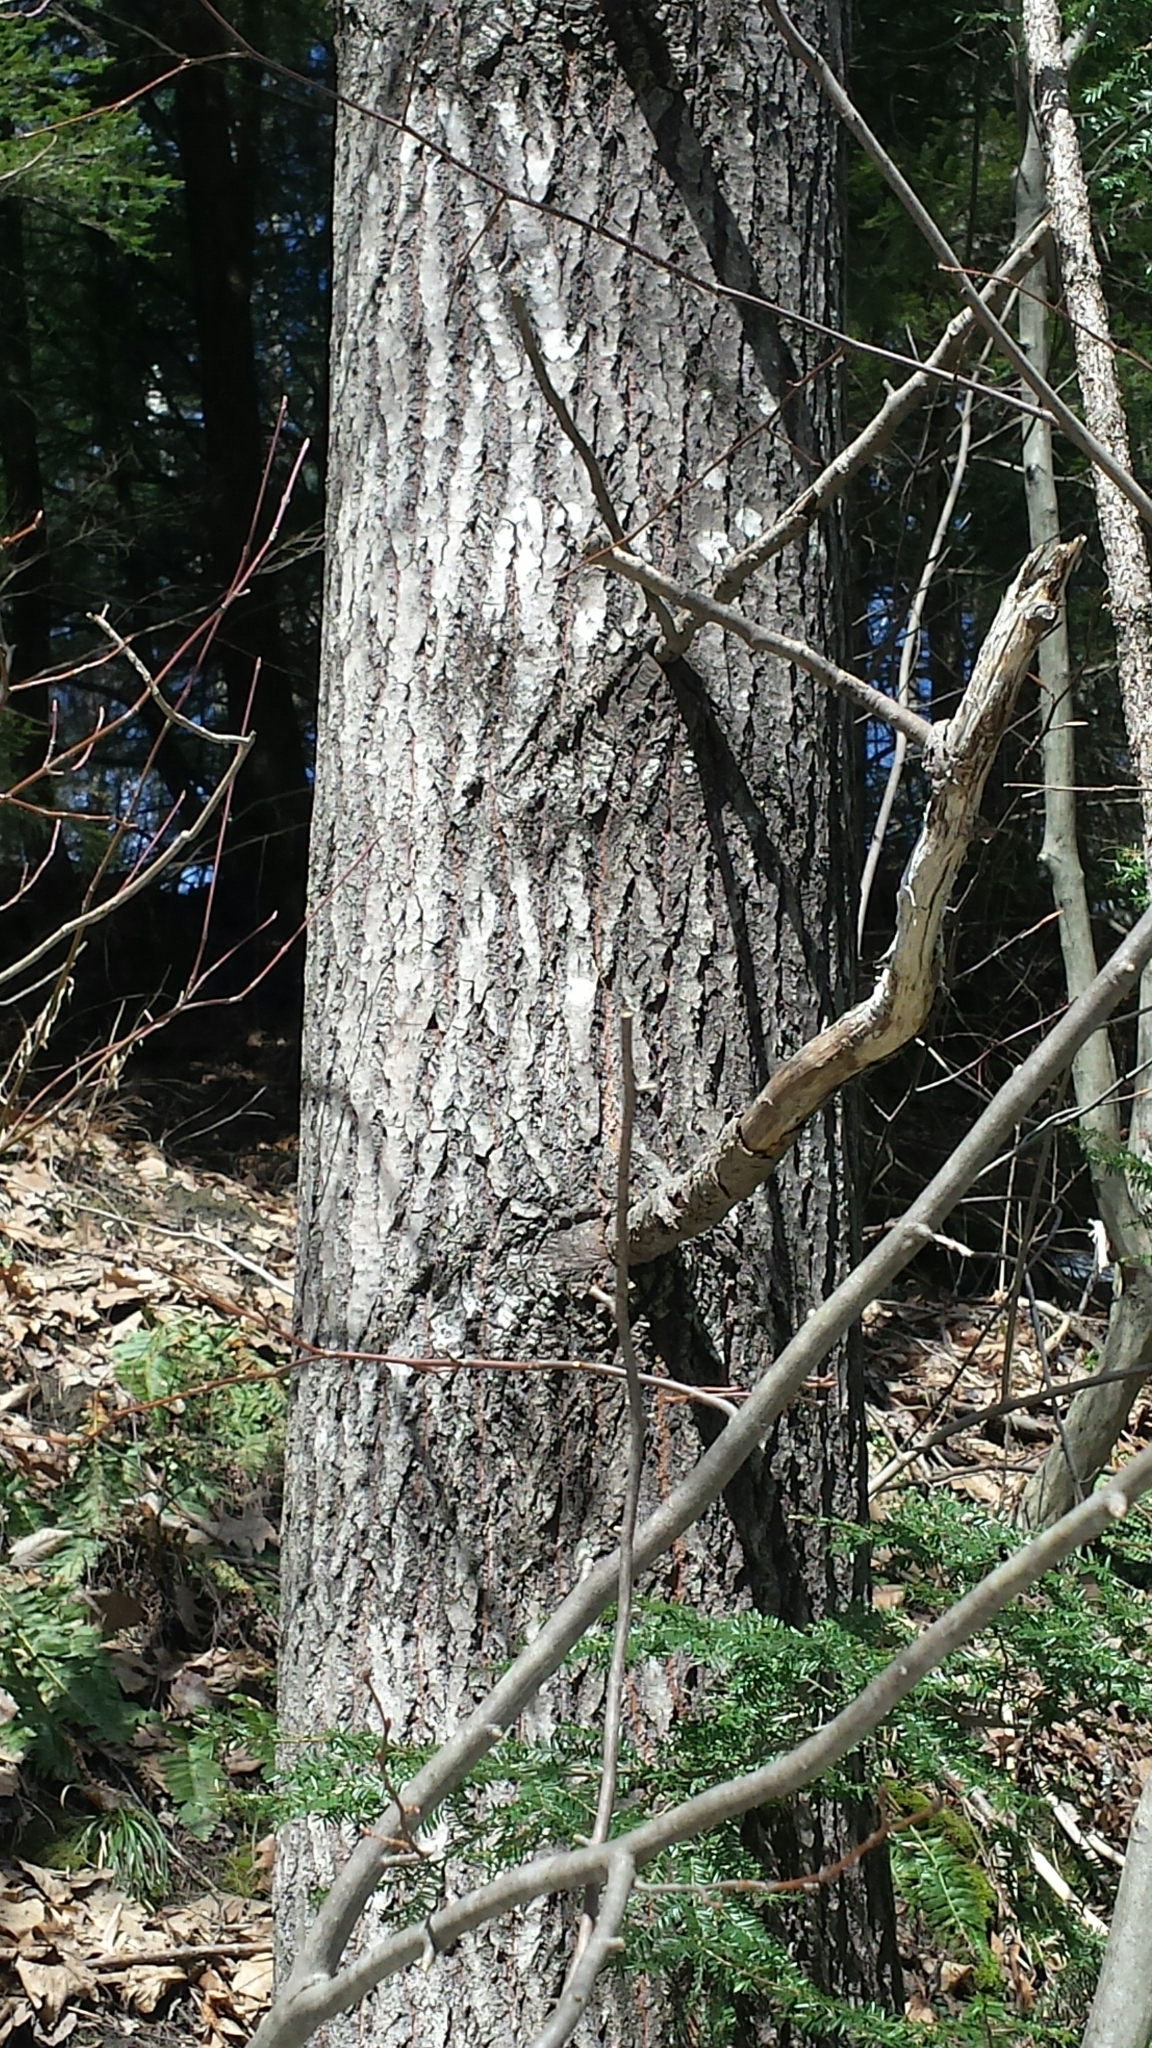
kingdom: Plantae
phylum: Tracheophyta
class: Magnoliopsida
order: Malpighiales
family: Salicaceae
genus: Populus
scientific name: Populus grandidentata
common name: Bigtooth aspen
